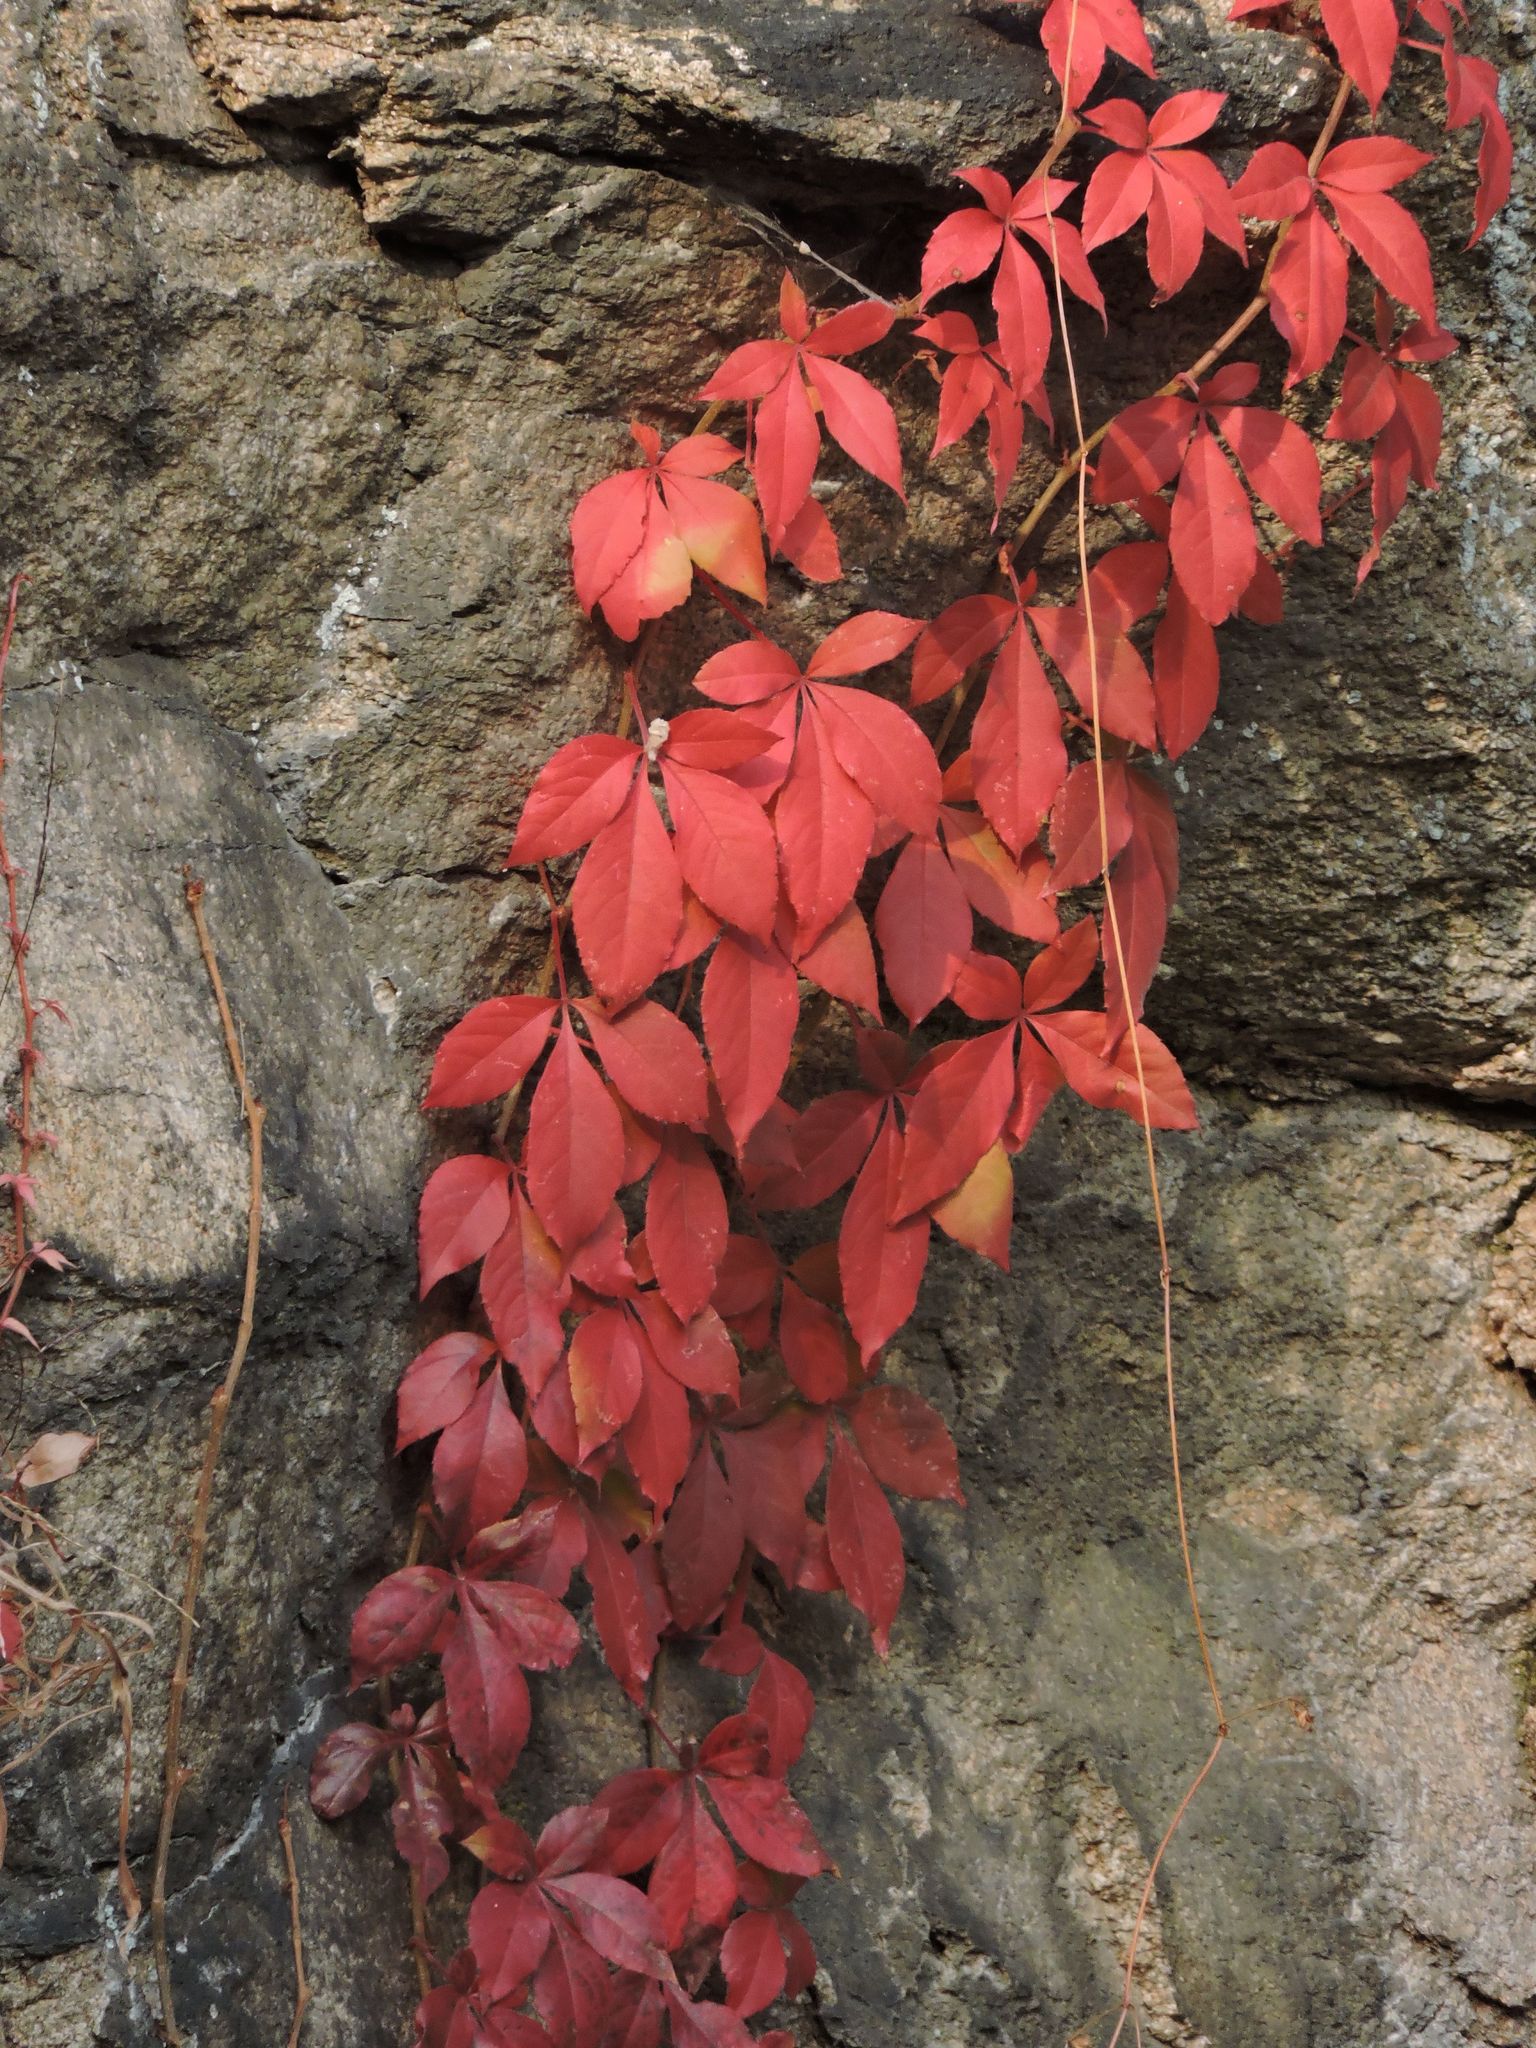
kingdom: Plantae
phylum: Tracheophyta
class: Magnoliopsida
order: Vitales
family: Vitaceae
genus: Parthenocissus
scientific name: Parthenocissus quinquefolia
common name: Virginia-creeper
